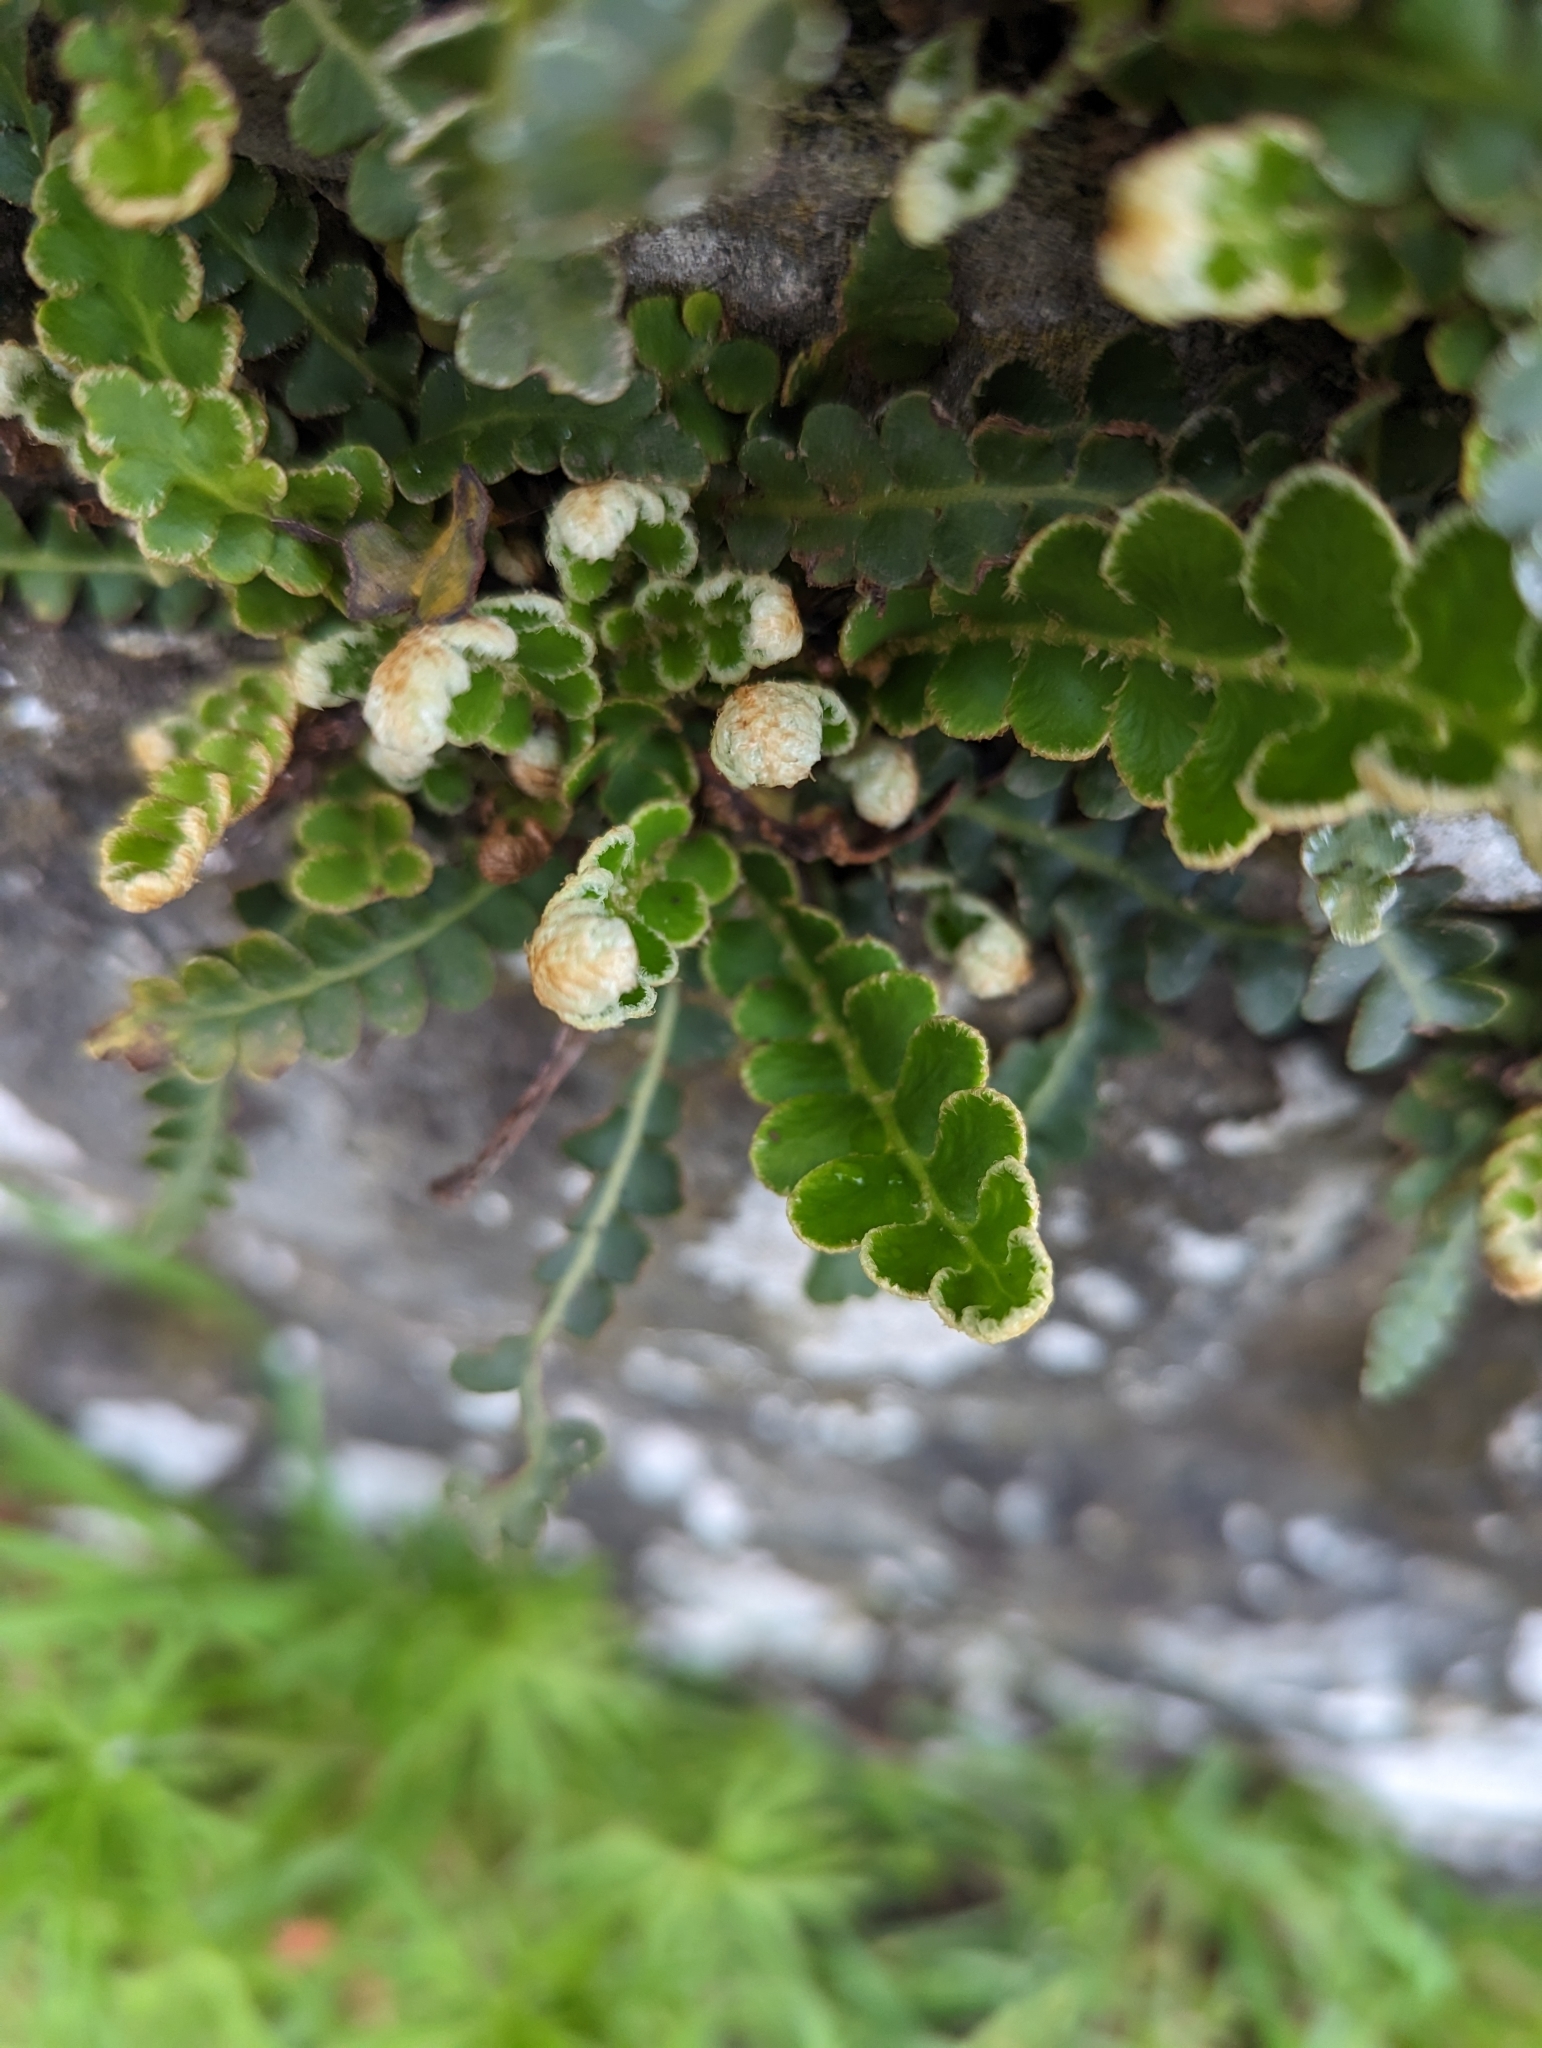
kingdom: Plantae
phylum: Tracheophyta
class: Polypodiopsida
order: Polypodiales
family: Aspleniaceae
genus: Asplenium
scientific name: Asplenium ceterach
